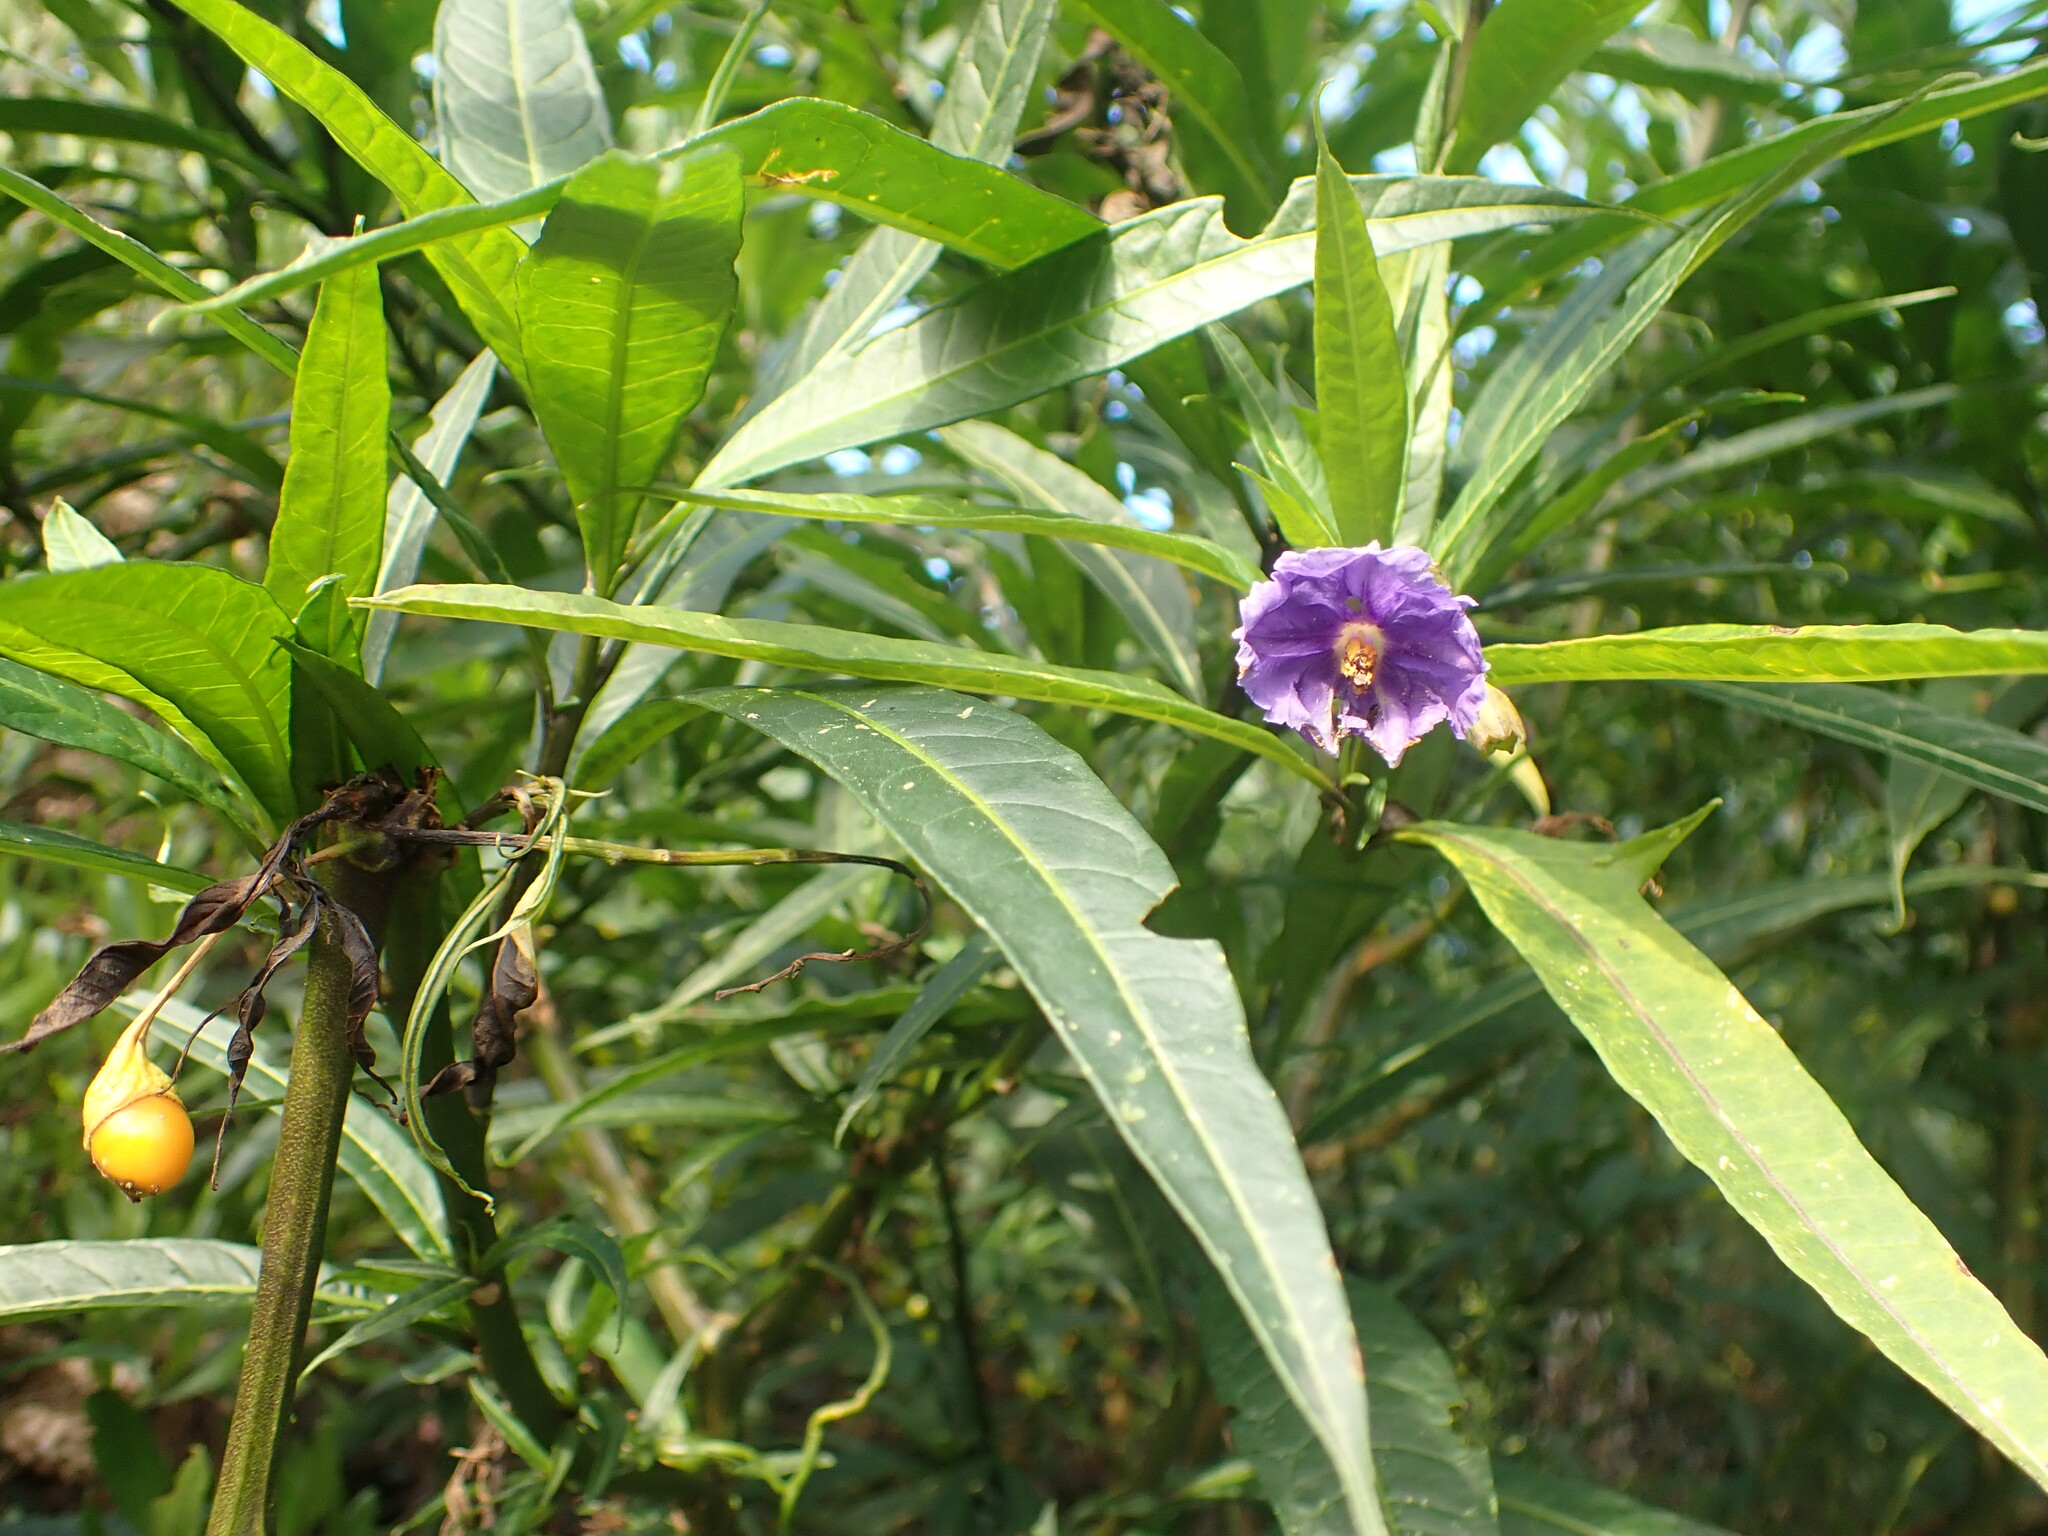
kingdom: Plantae
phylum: Tracheophyta
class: Magnoliopsida
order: Solanales
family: Solanaceae
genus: Solanum
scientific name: Solanum laciniatum
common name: Kangaroo-apple
